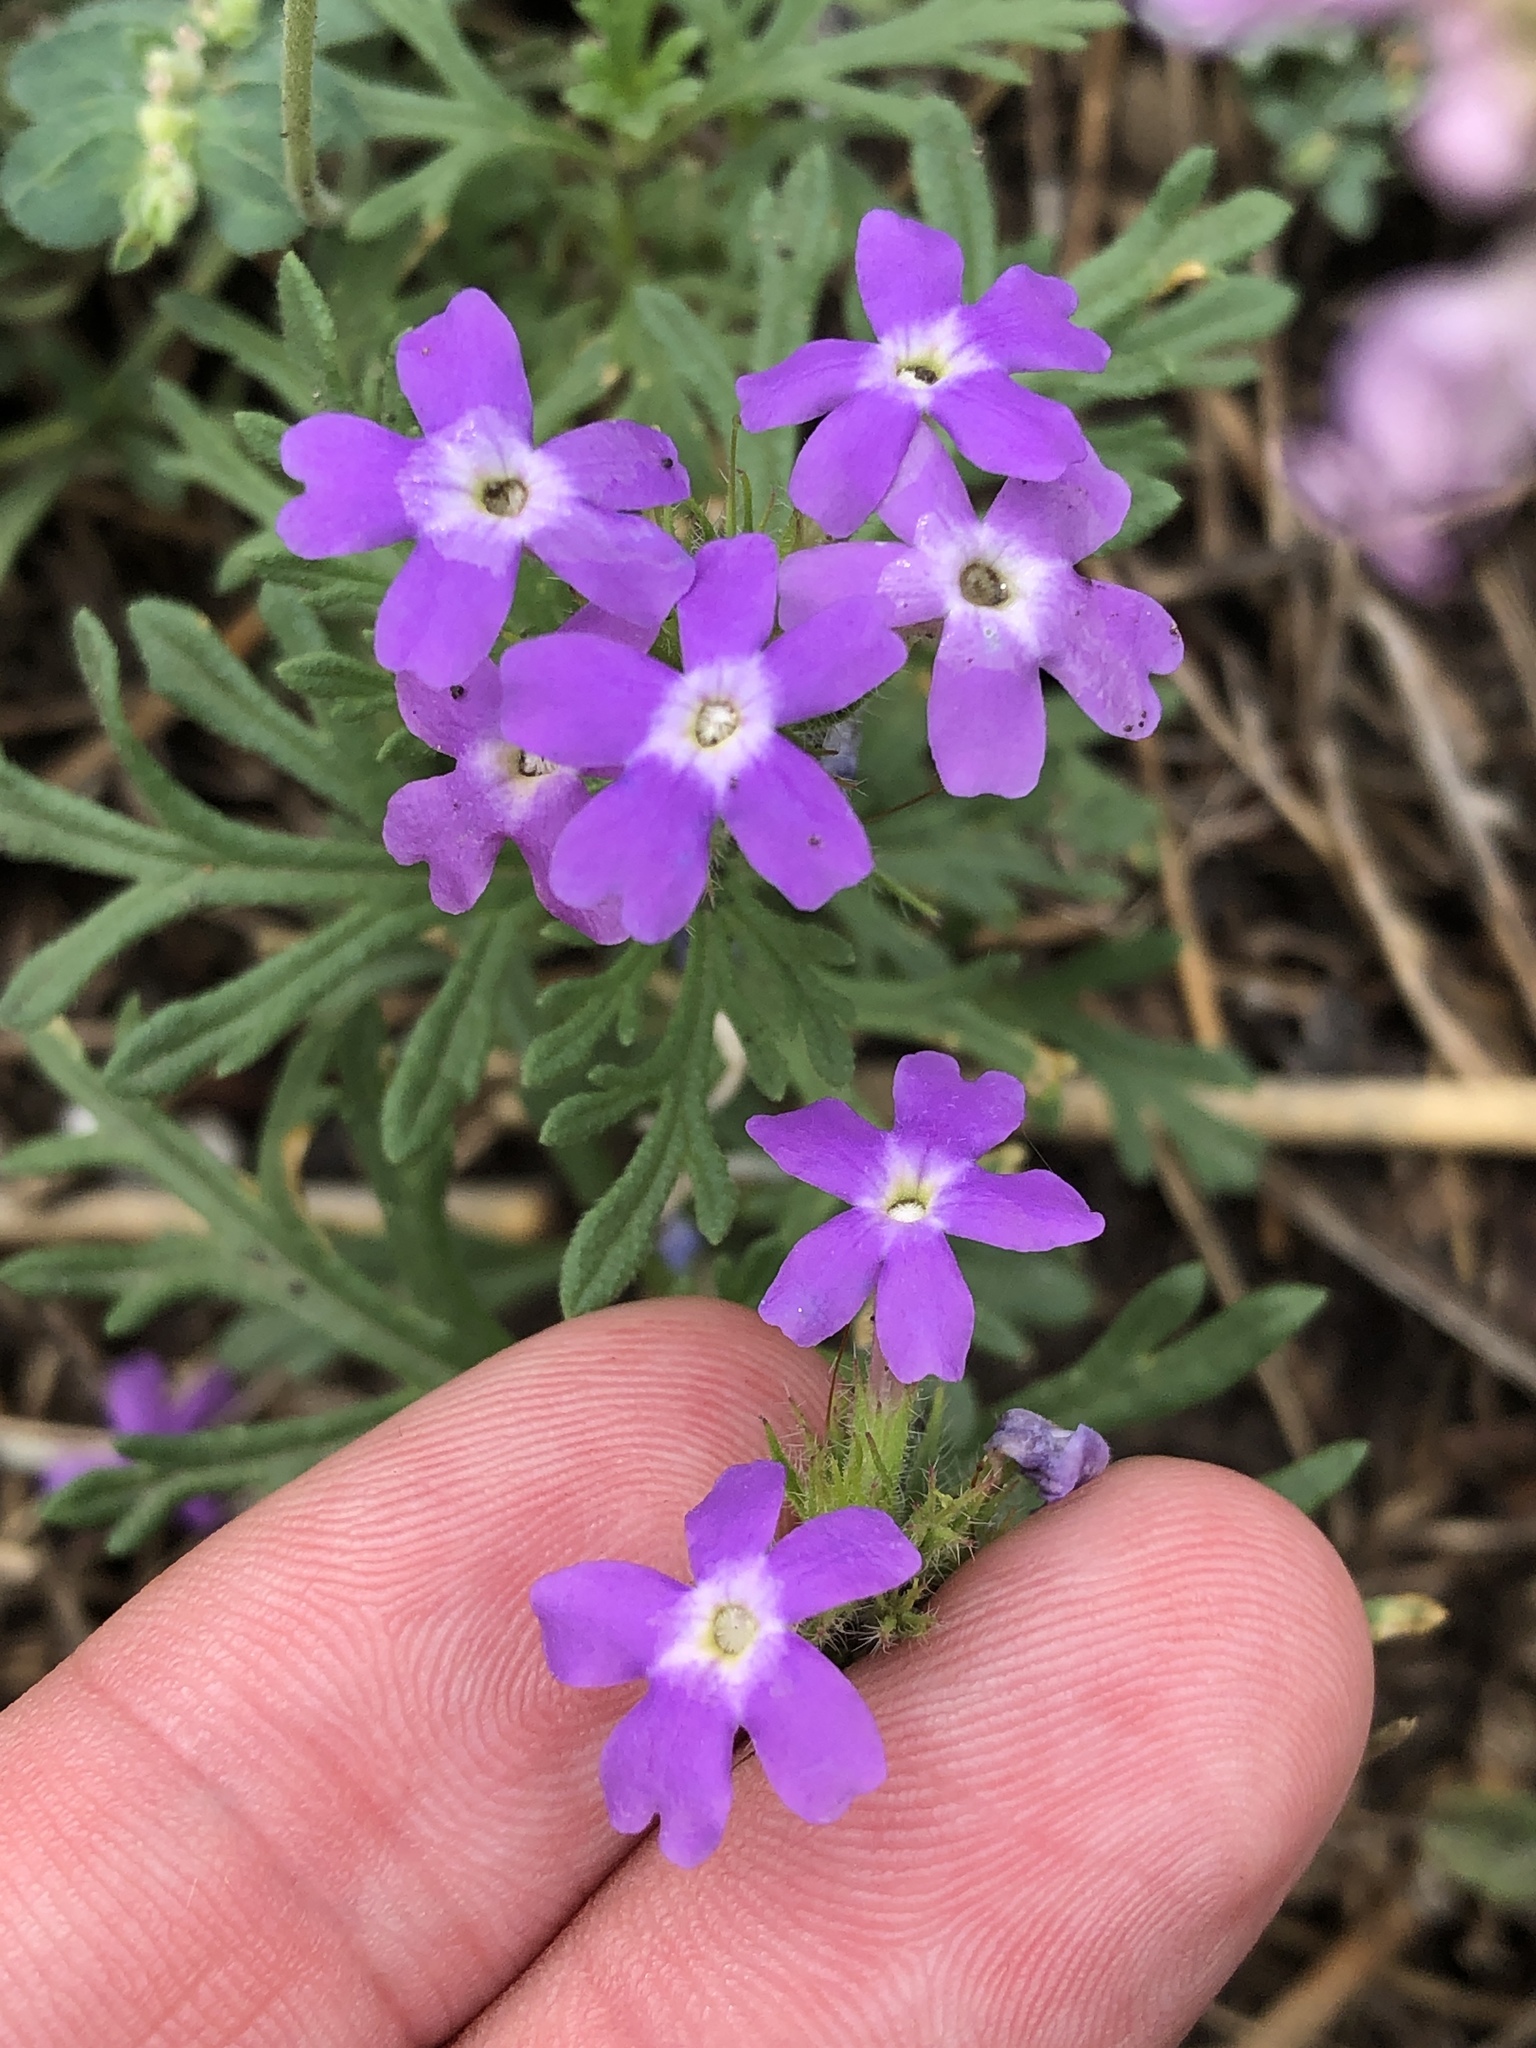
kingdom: Plantae
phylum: Tracheophyta
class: Magnoliopsida
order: Lamiales
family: Verbenaceae
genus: Verbena
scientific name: Verbena bipinnatifida
